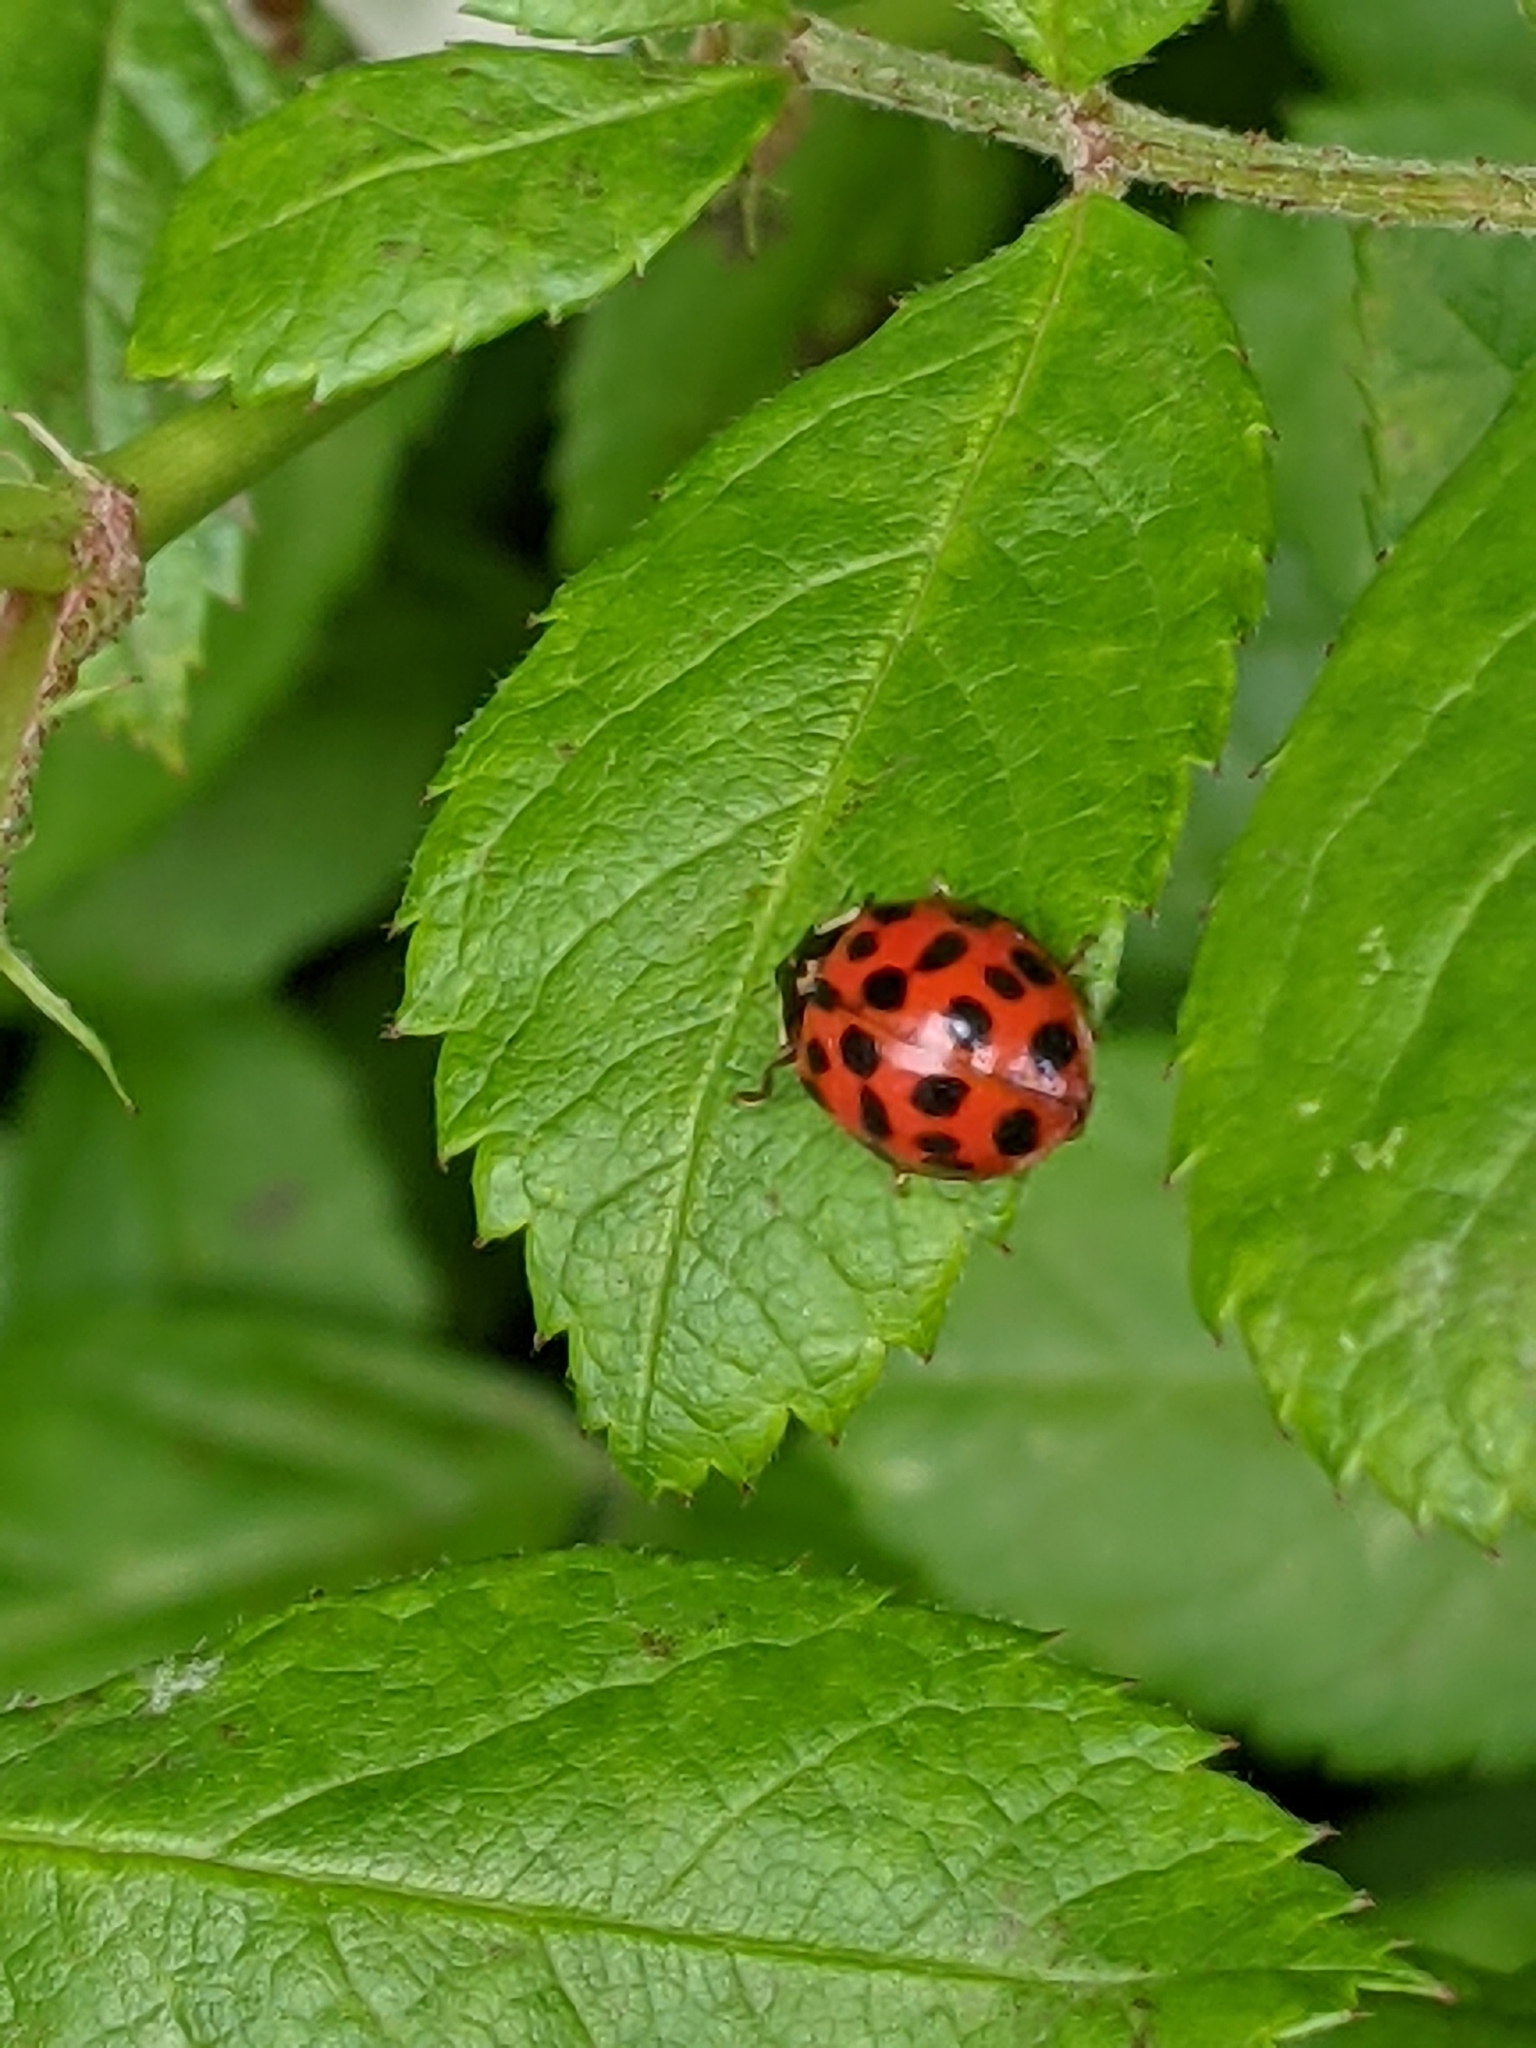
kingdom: Animalia
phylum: Arthropoda
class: Insecta
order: Coleoptera
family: Coccinellidae
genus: Harmonia
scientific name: Harmonia axyridis
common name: Harlequin ladybird
